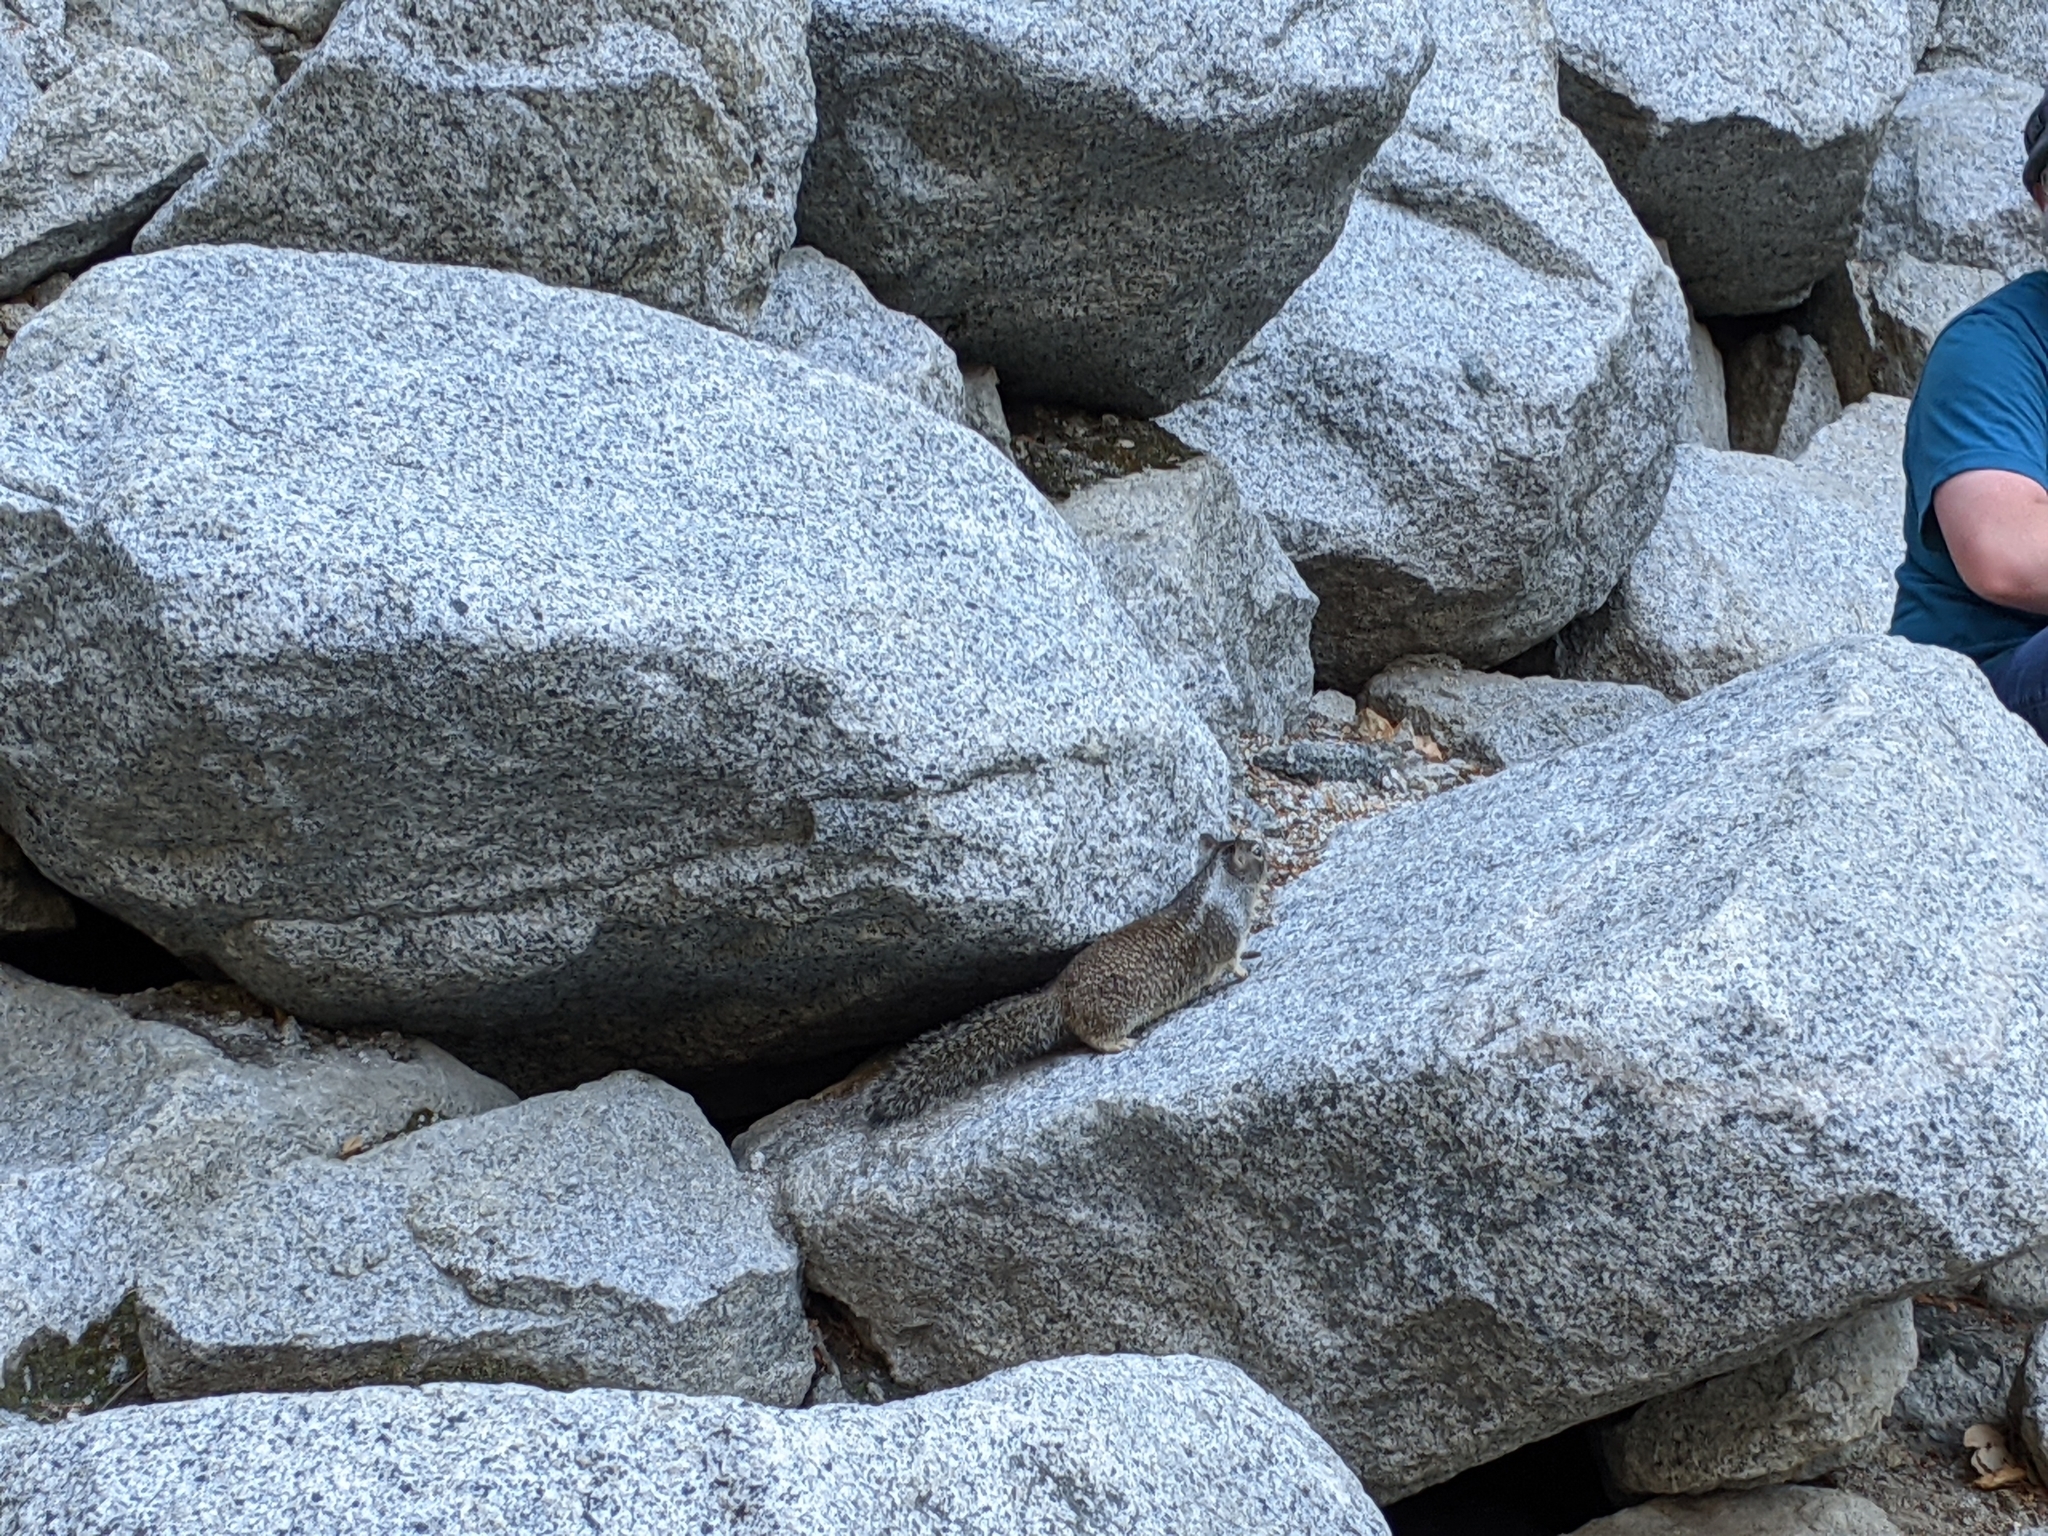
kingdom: Animalia
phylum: Chordata
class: Mammalia
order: Rodentia
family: Sciuridae
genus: Otospermophilus
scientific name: Otospermophilus beecheyi
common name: California ground squirrel
